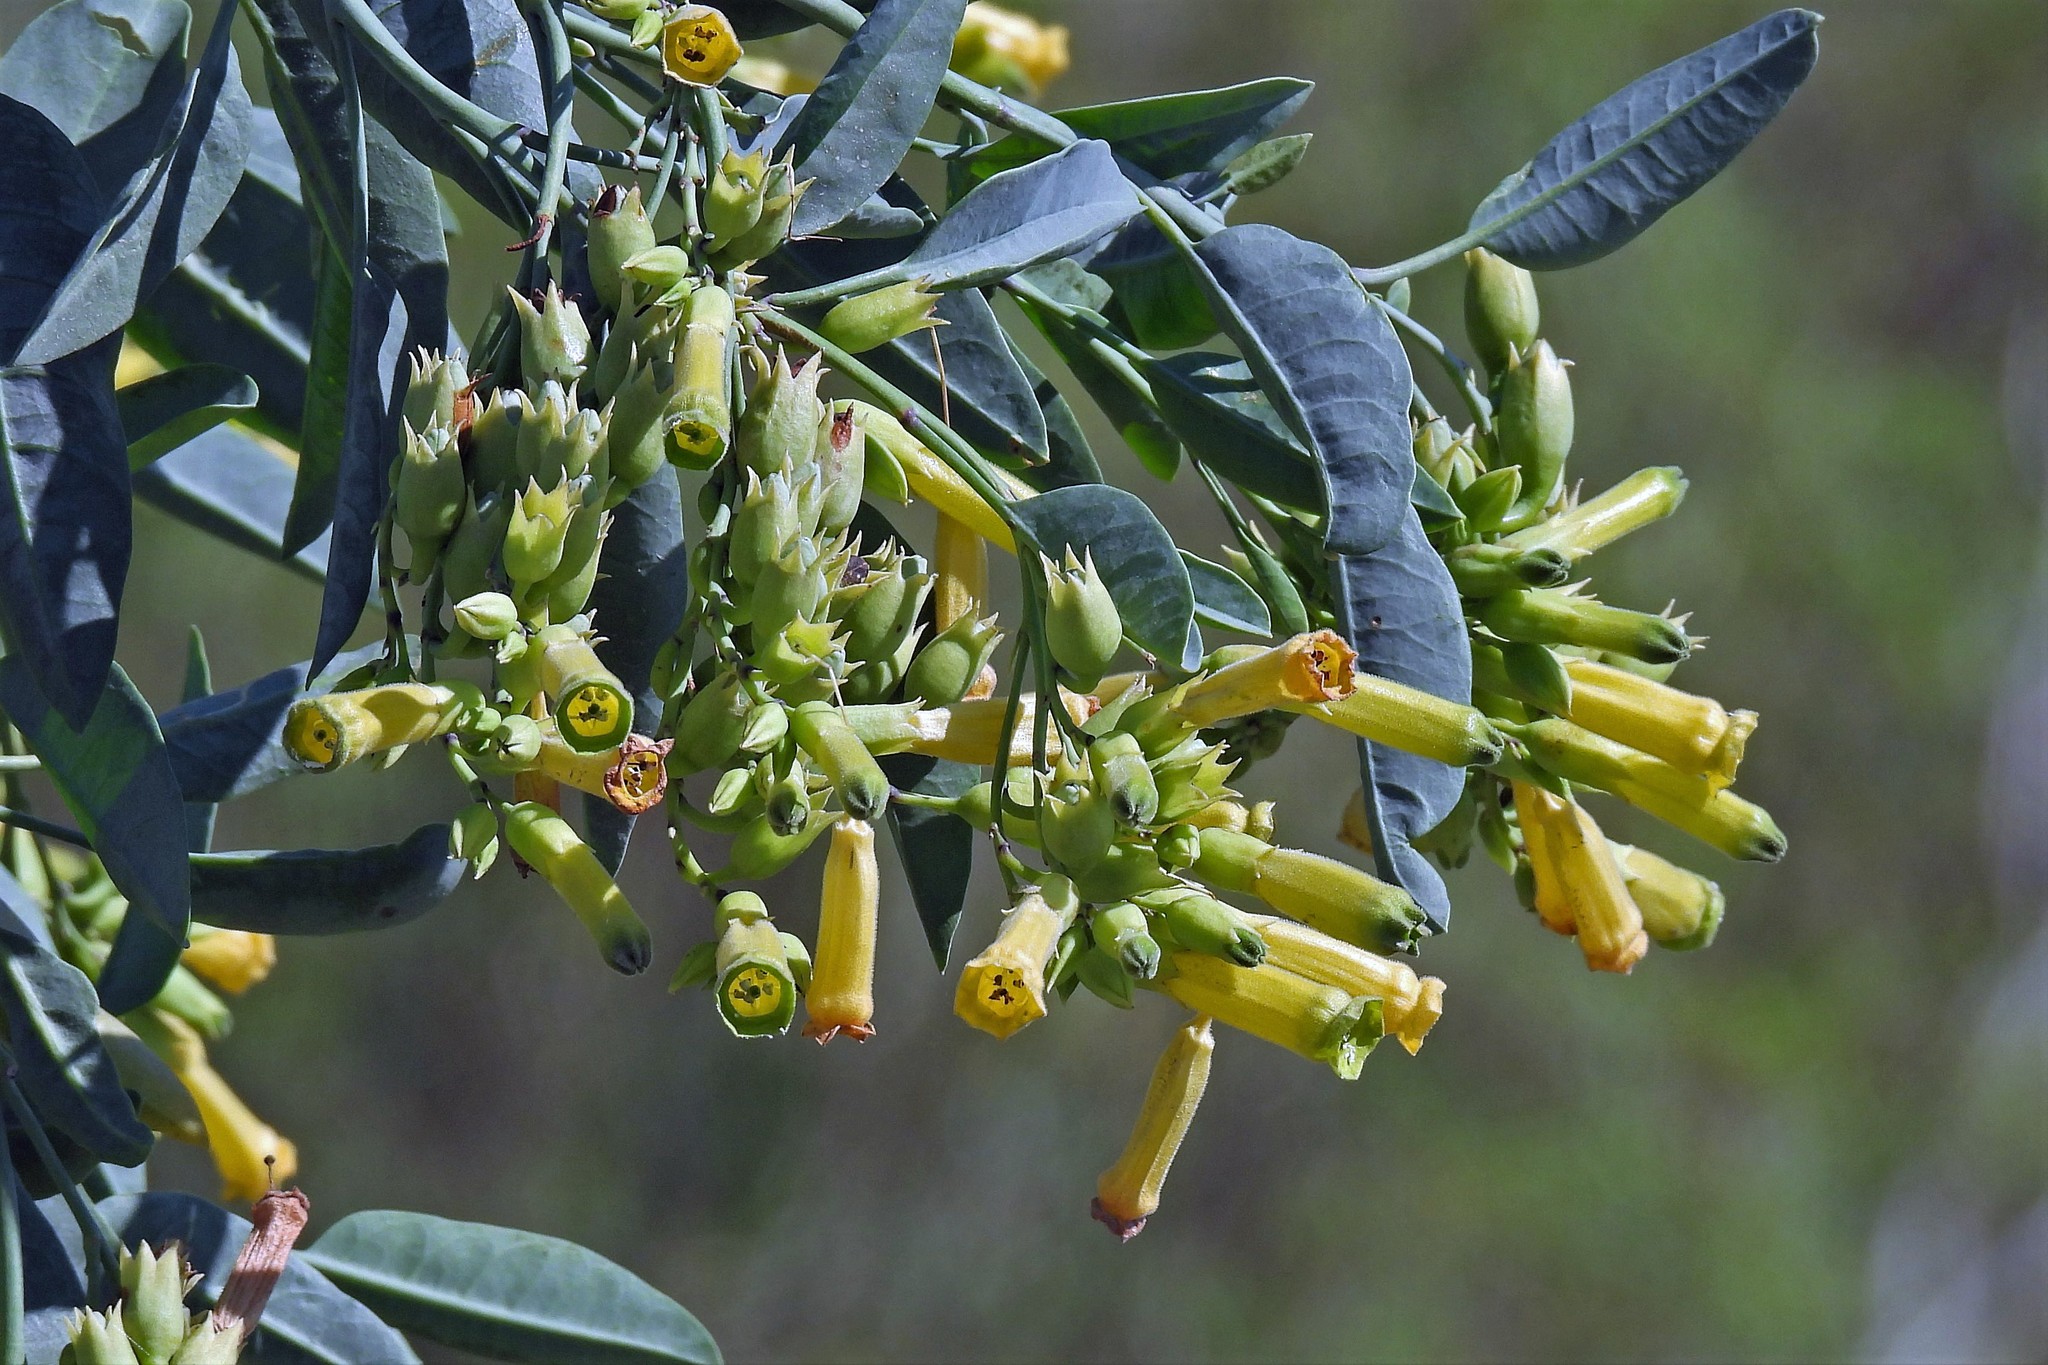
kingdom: Plantae
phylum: Tracheophyta
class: Magnoliopsida
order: Solanales
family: Solanaceae
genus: Nicotiana
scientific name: Nicotiana glauca
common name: Tree tobacco
